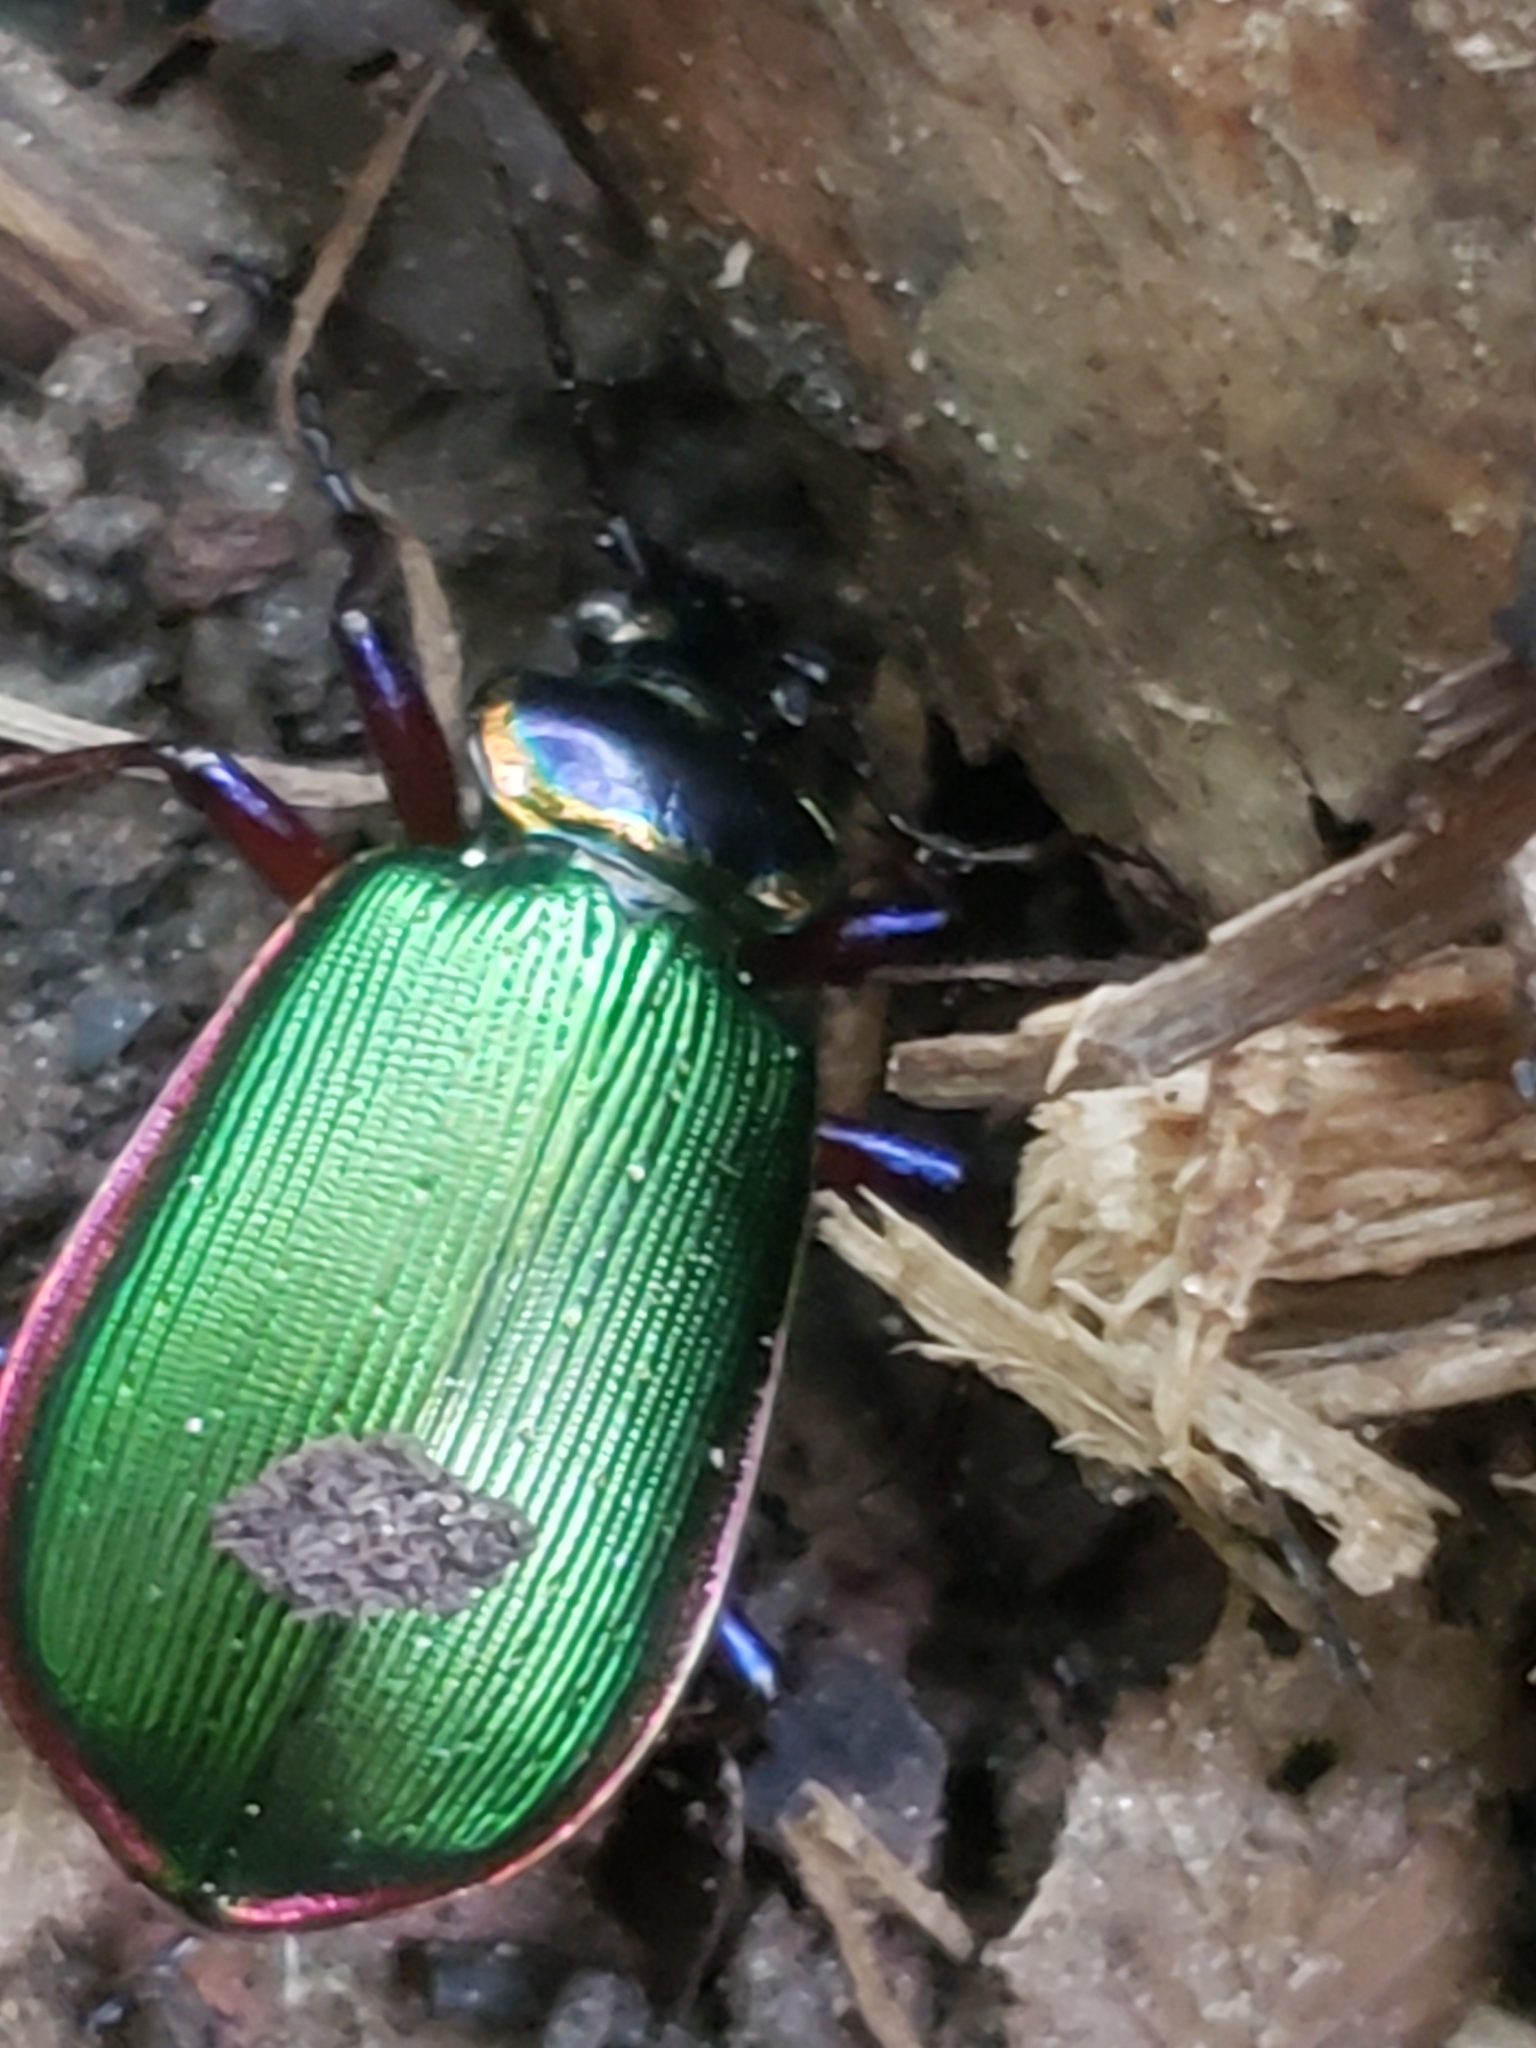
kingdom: Animalia
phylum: Arthropoda
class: Insecta
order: Coleoptera
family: Carabidae
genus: Calosoma
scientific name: Calosoma scrutator
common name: Fiery searcher beetle
